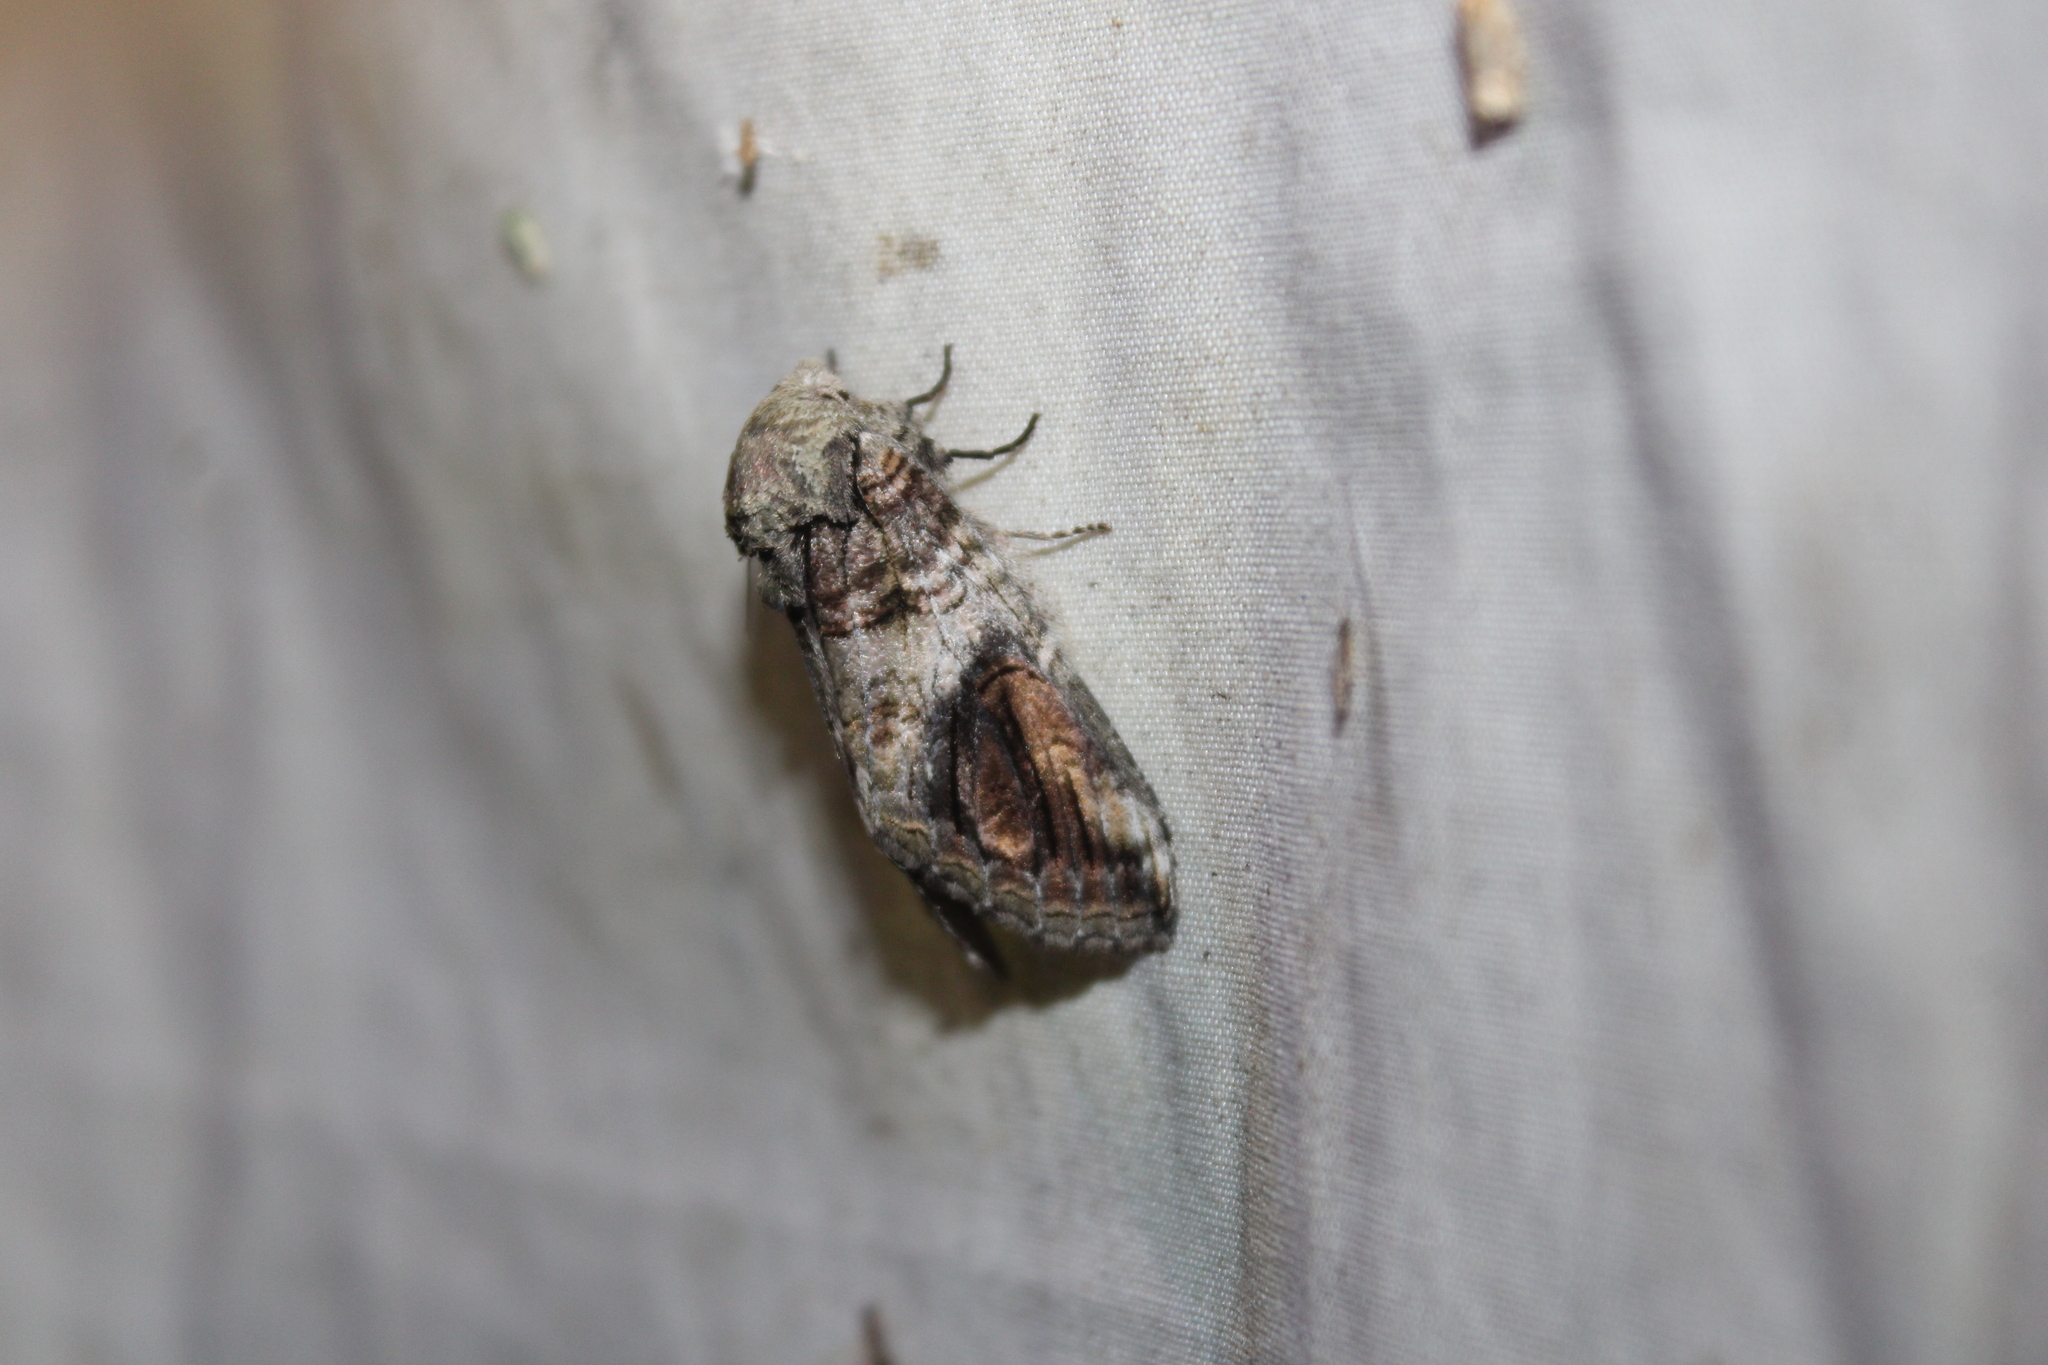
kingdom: Animalia
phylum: Arthropoda
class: Insecta
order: Lepidoptera
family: Notodontidae
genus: Heterocampa
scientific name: Heterocampa obliqua
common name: Oblique heterocampa
